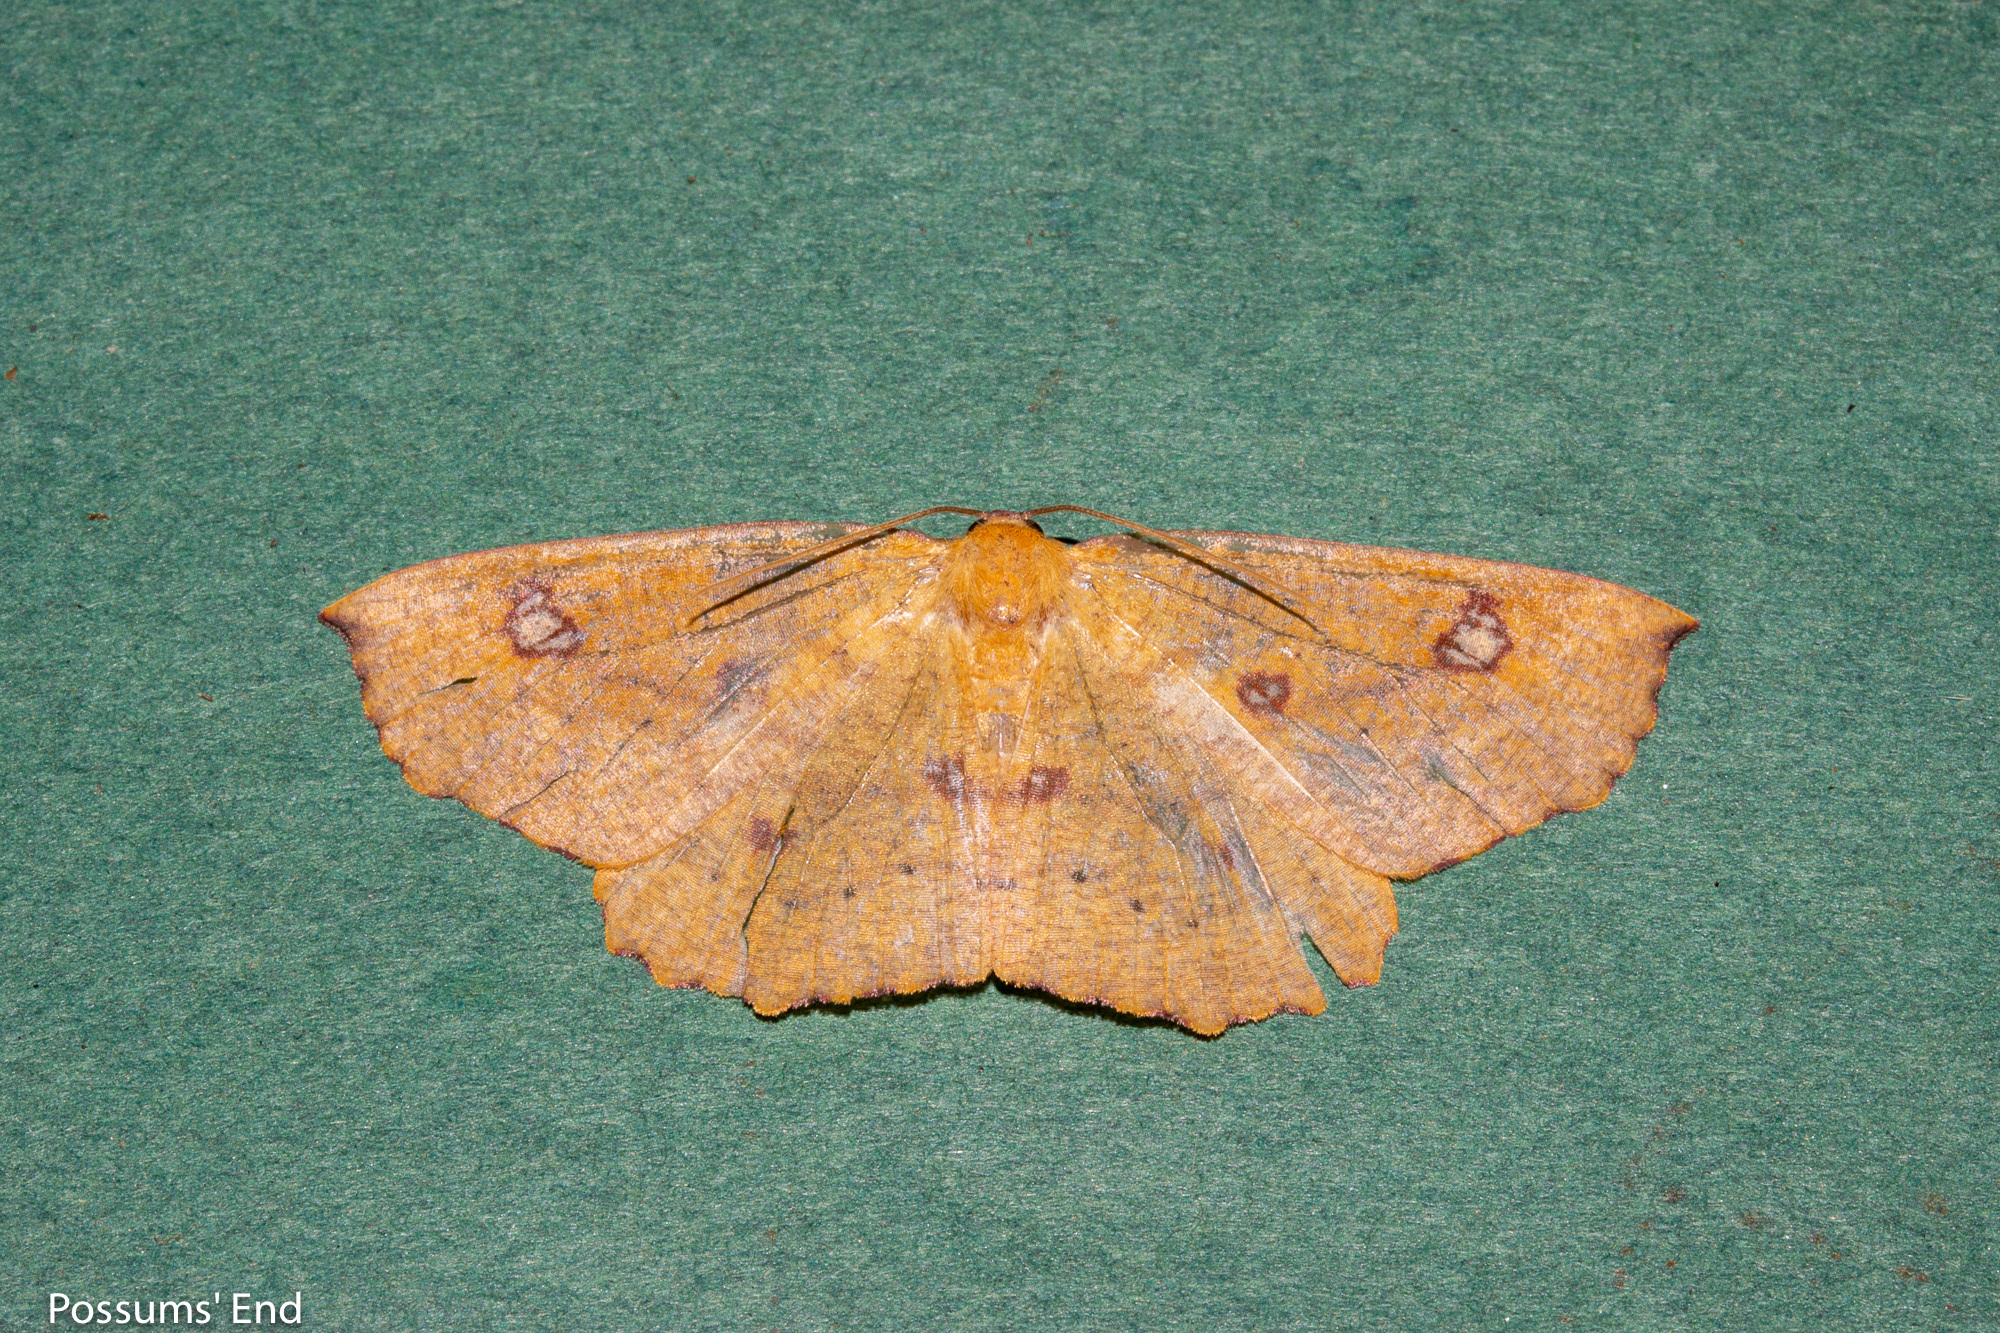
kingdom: Animalia
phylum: Arthropoda
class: Insecta
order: Lepidoptera
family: Geometridae
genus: Xyridacma
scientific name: Xyridacma alectoraria
